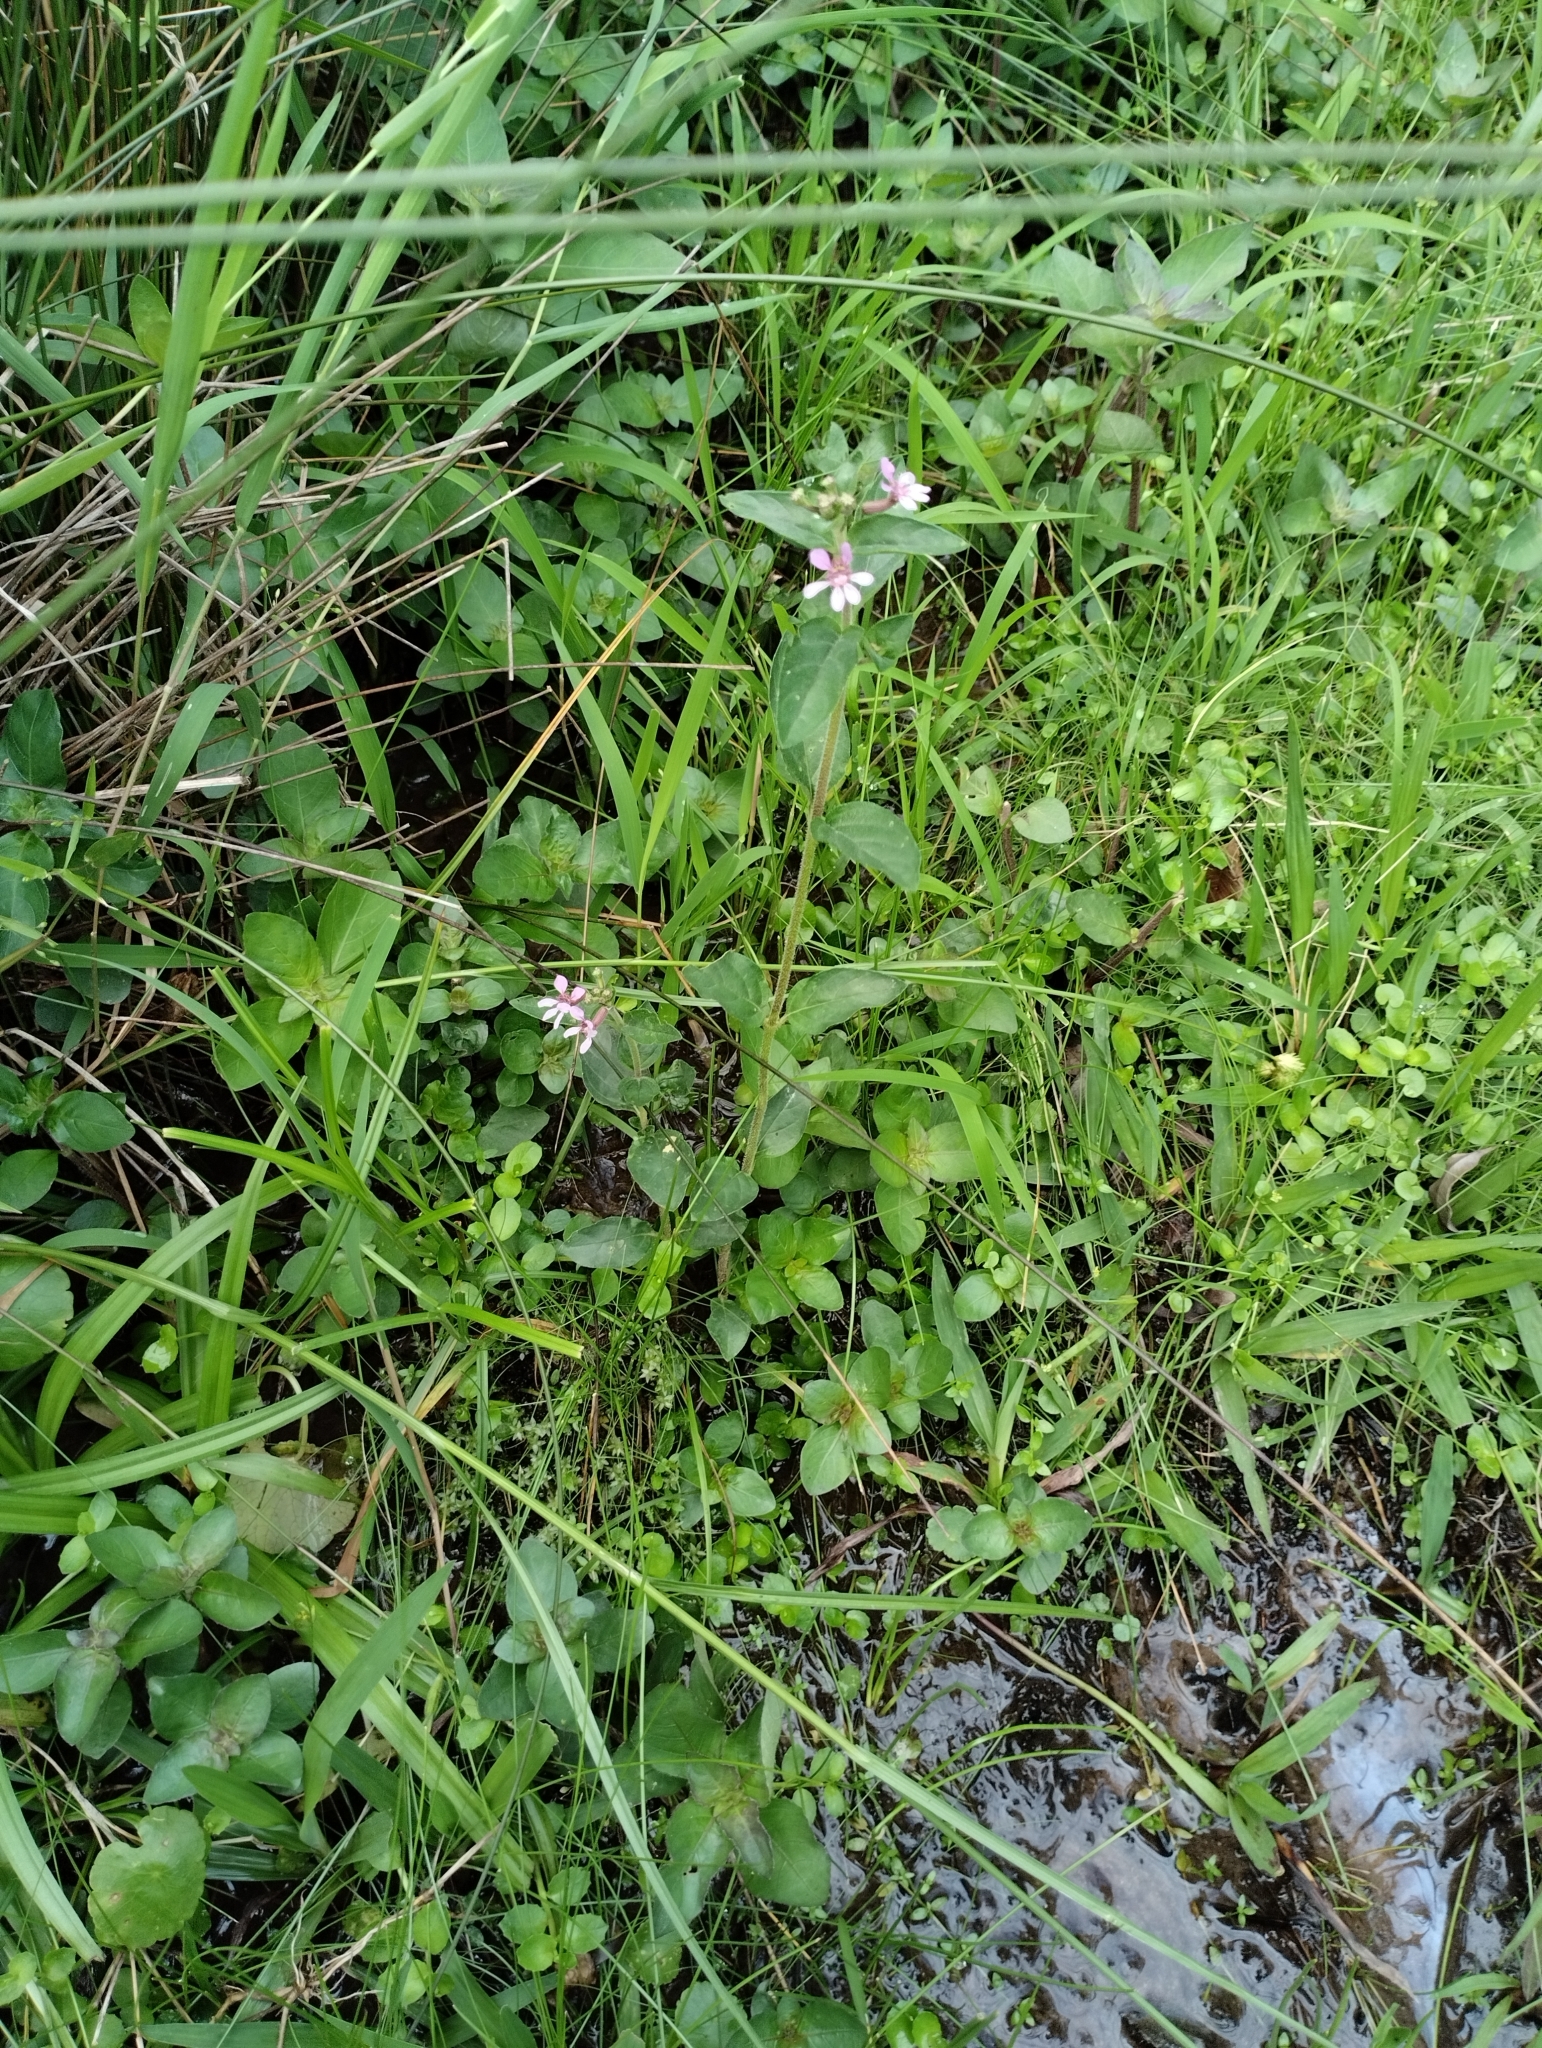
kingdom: Plantae
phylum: Tracheophyta
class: Magnoliopsida
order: Myrtales
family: Lythraceae
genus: Cuphea
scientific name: Cuphea racemosa
